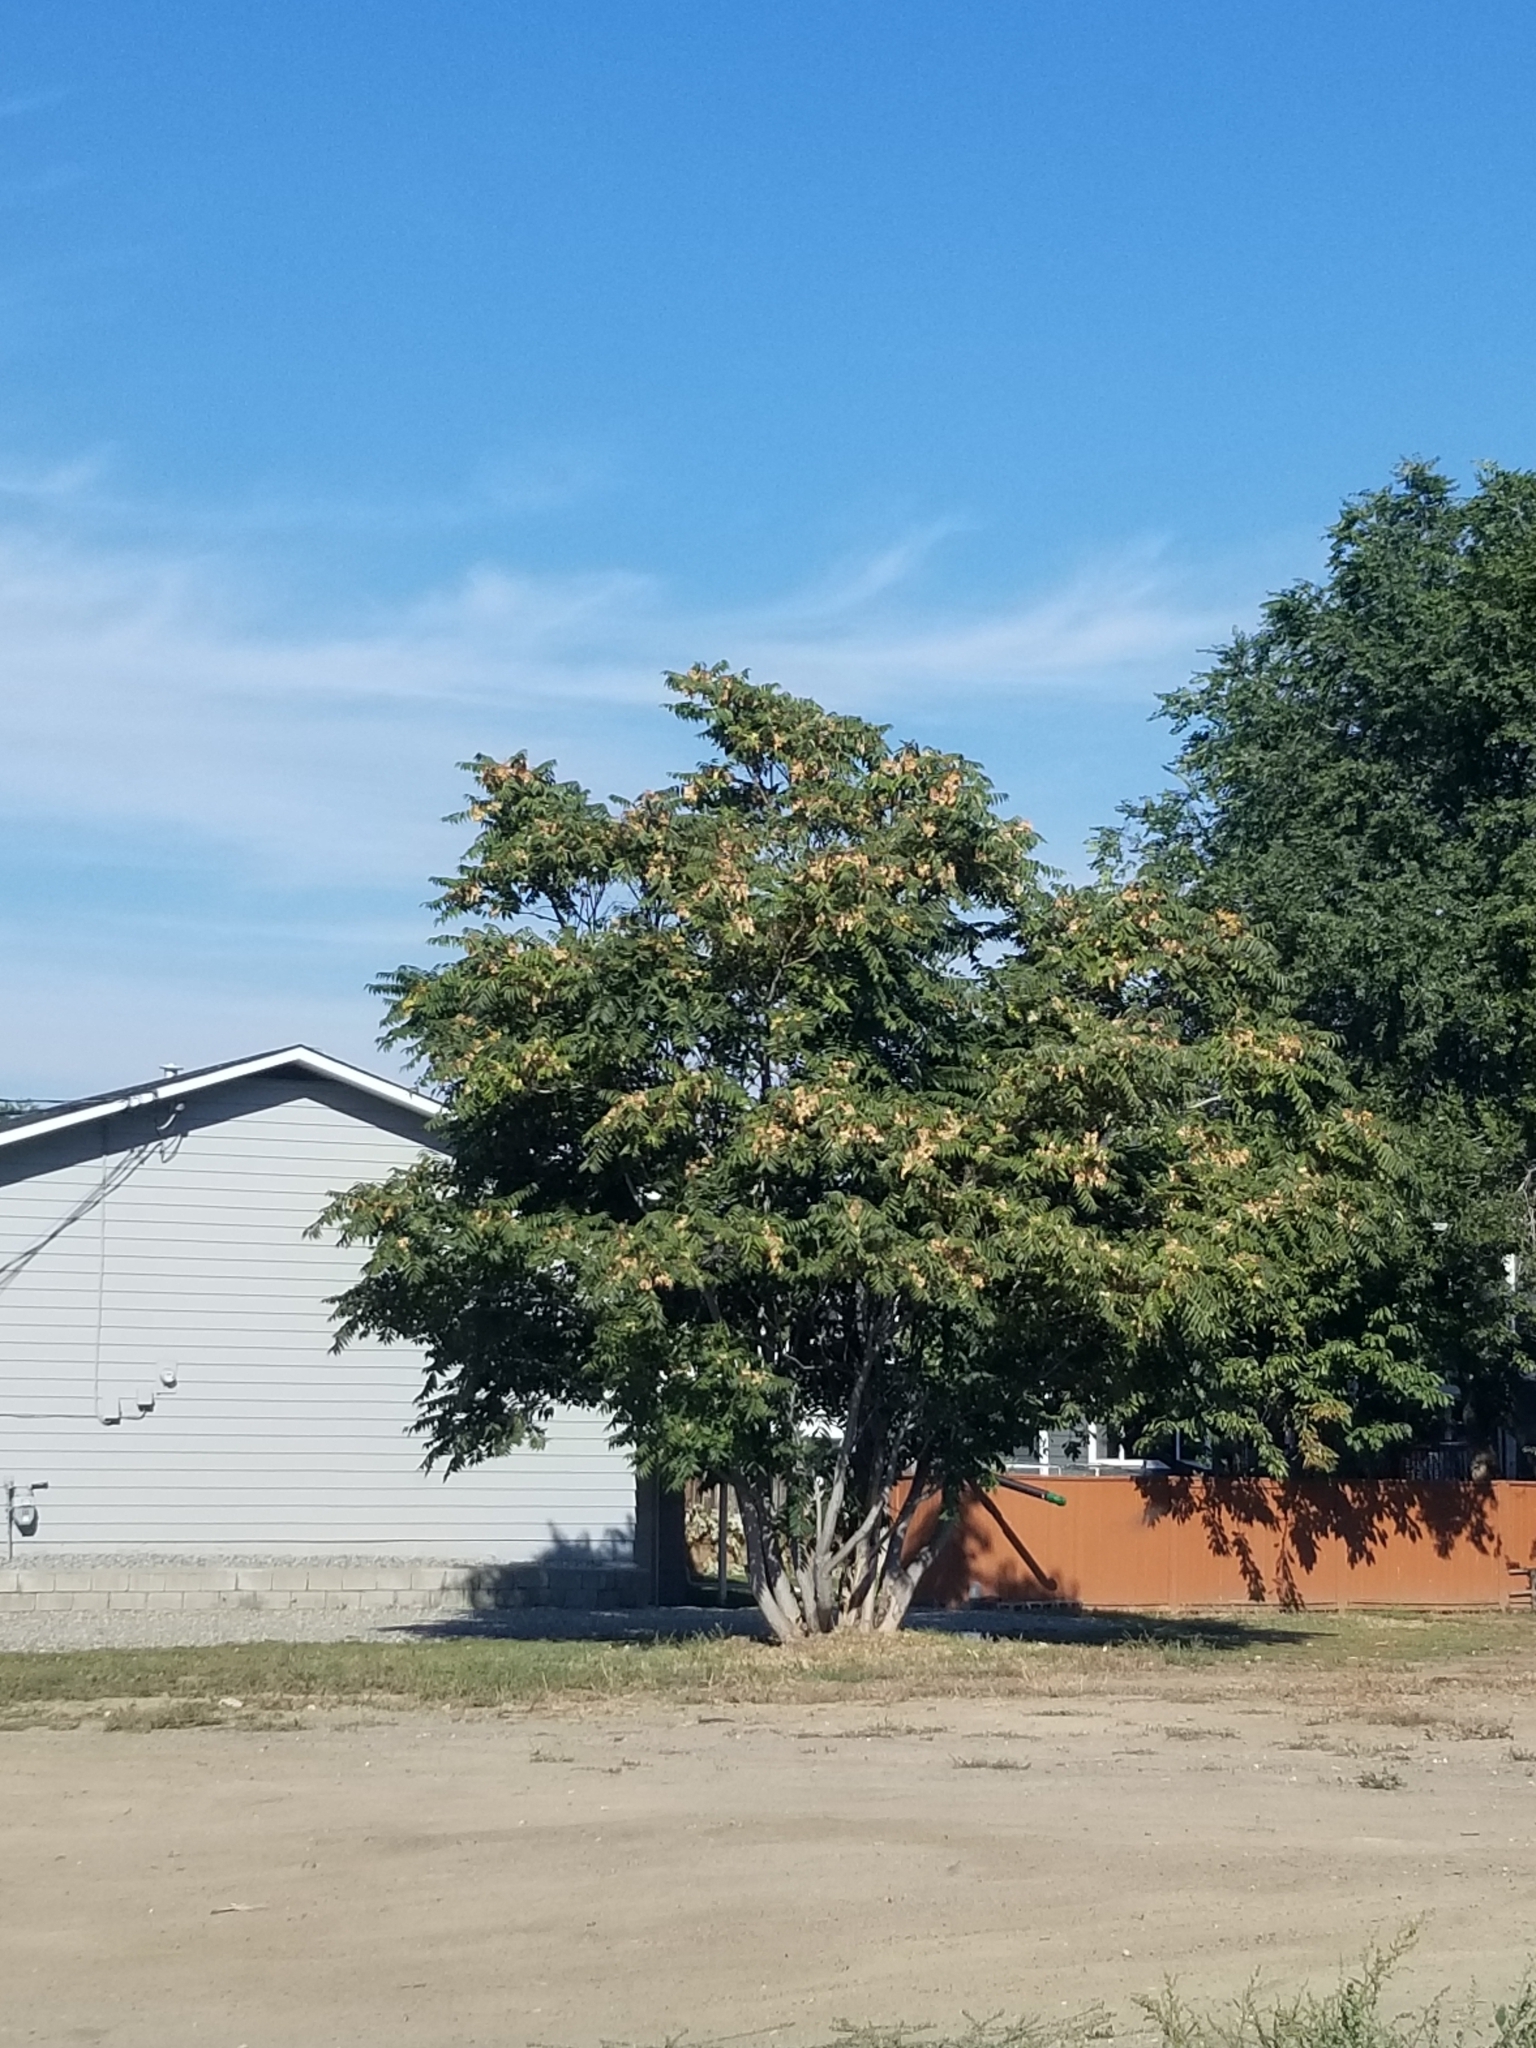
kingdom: Plantae
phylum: Tracheophyta
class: Magnoliopsida
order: Sapindales
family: Simaroubaceae
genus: Ailanthus
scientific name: Ailanthus altissima
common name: Tree-of-heaven
